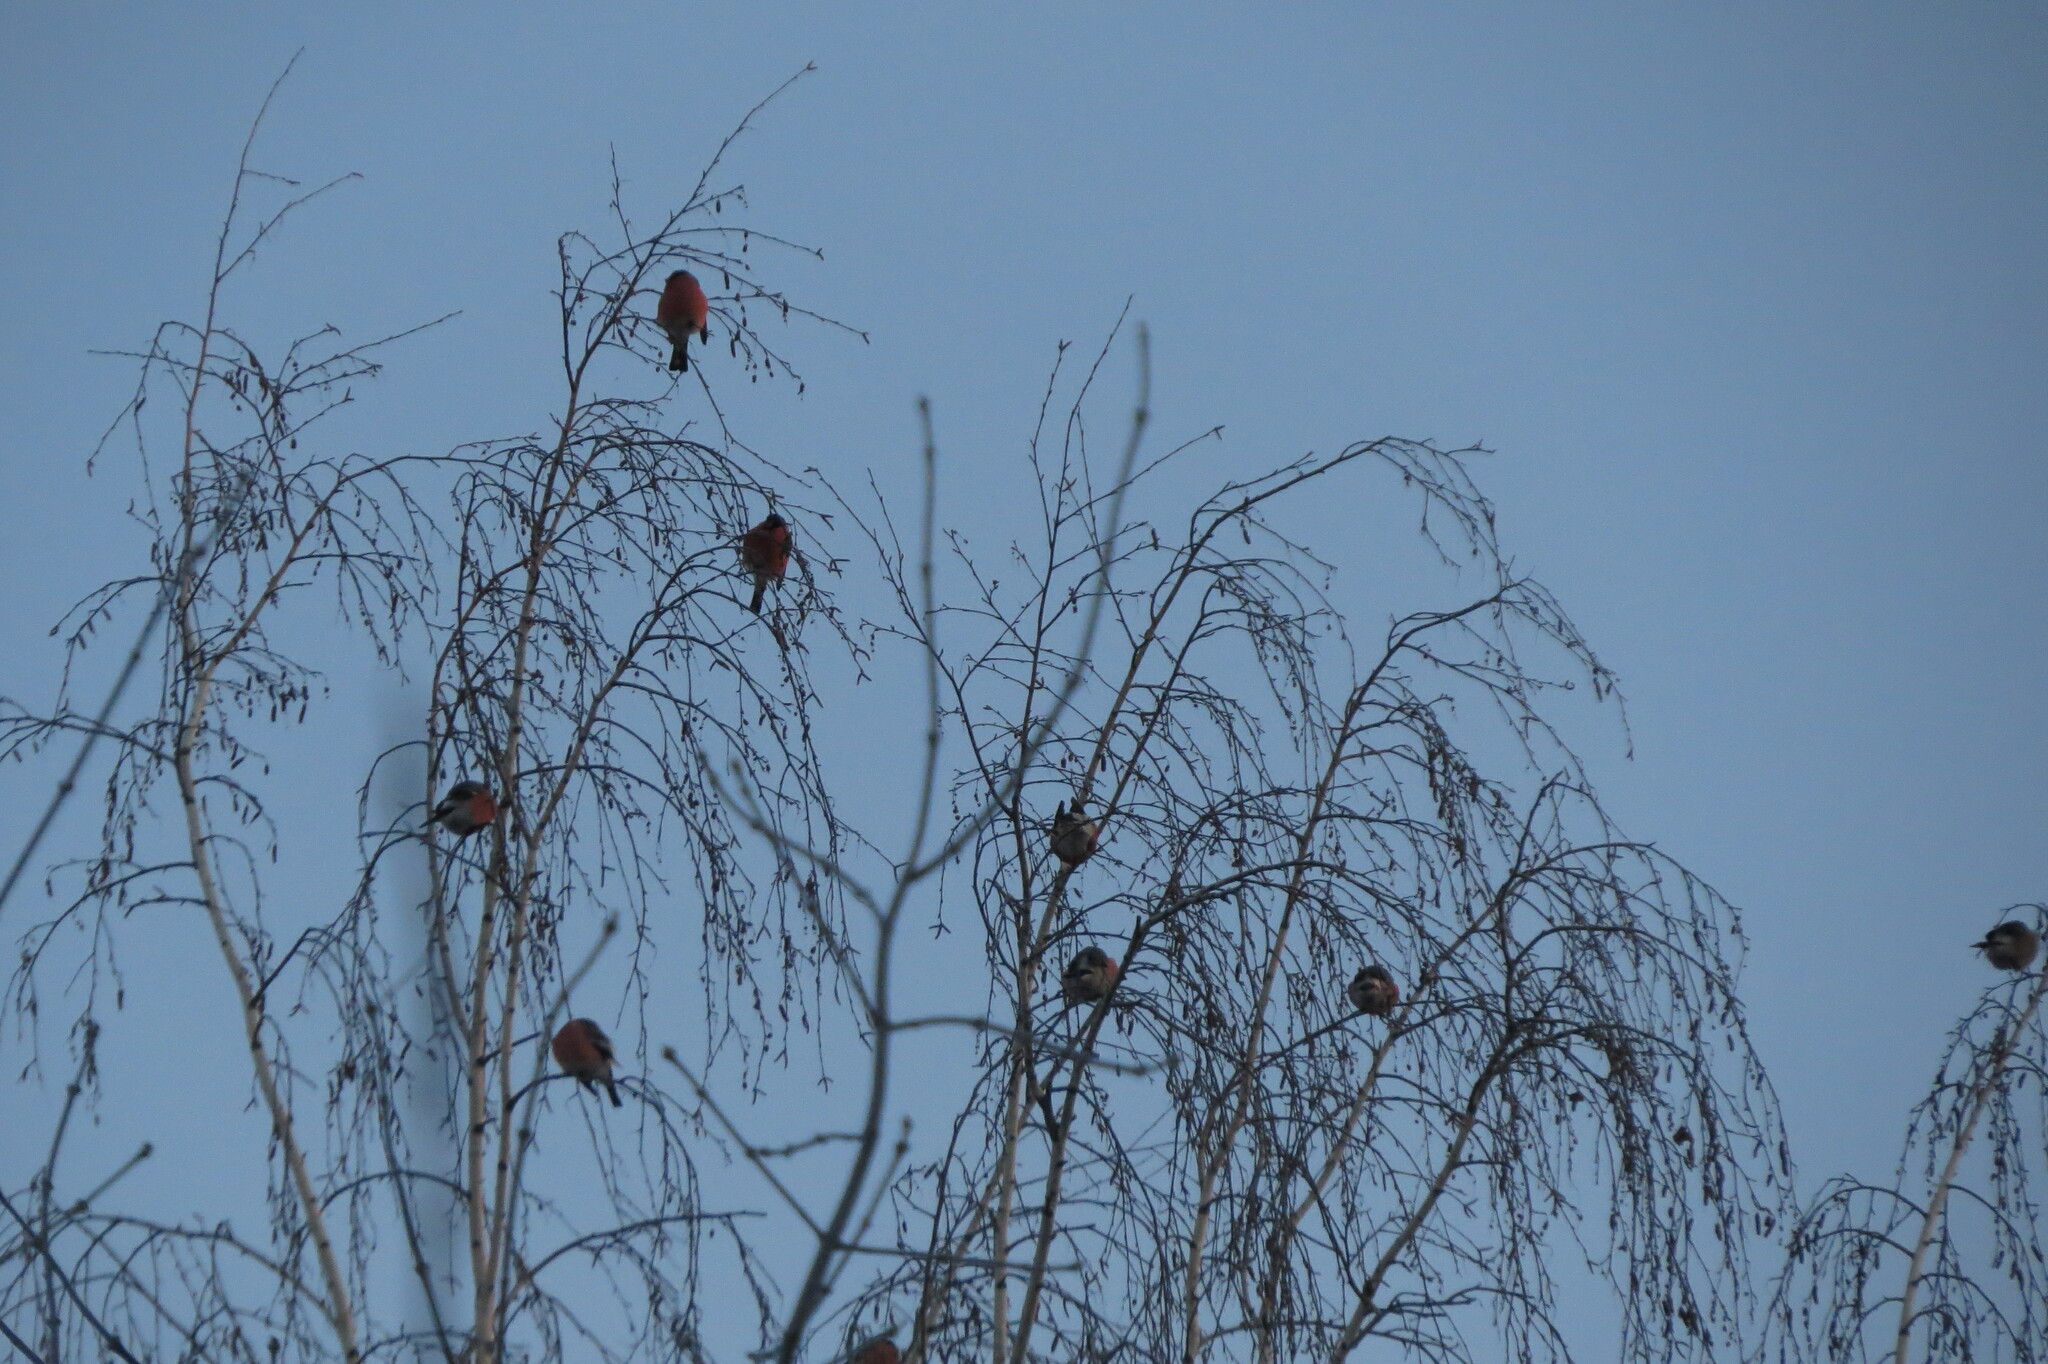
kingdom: Animalia
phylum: Chordata
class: Aves
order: Passeriformes
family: Fringillidae
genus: Pyrrhula
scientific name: Pyrrhula pyrrhula
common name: Eurasian bullfinch
